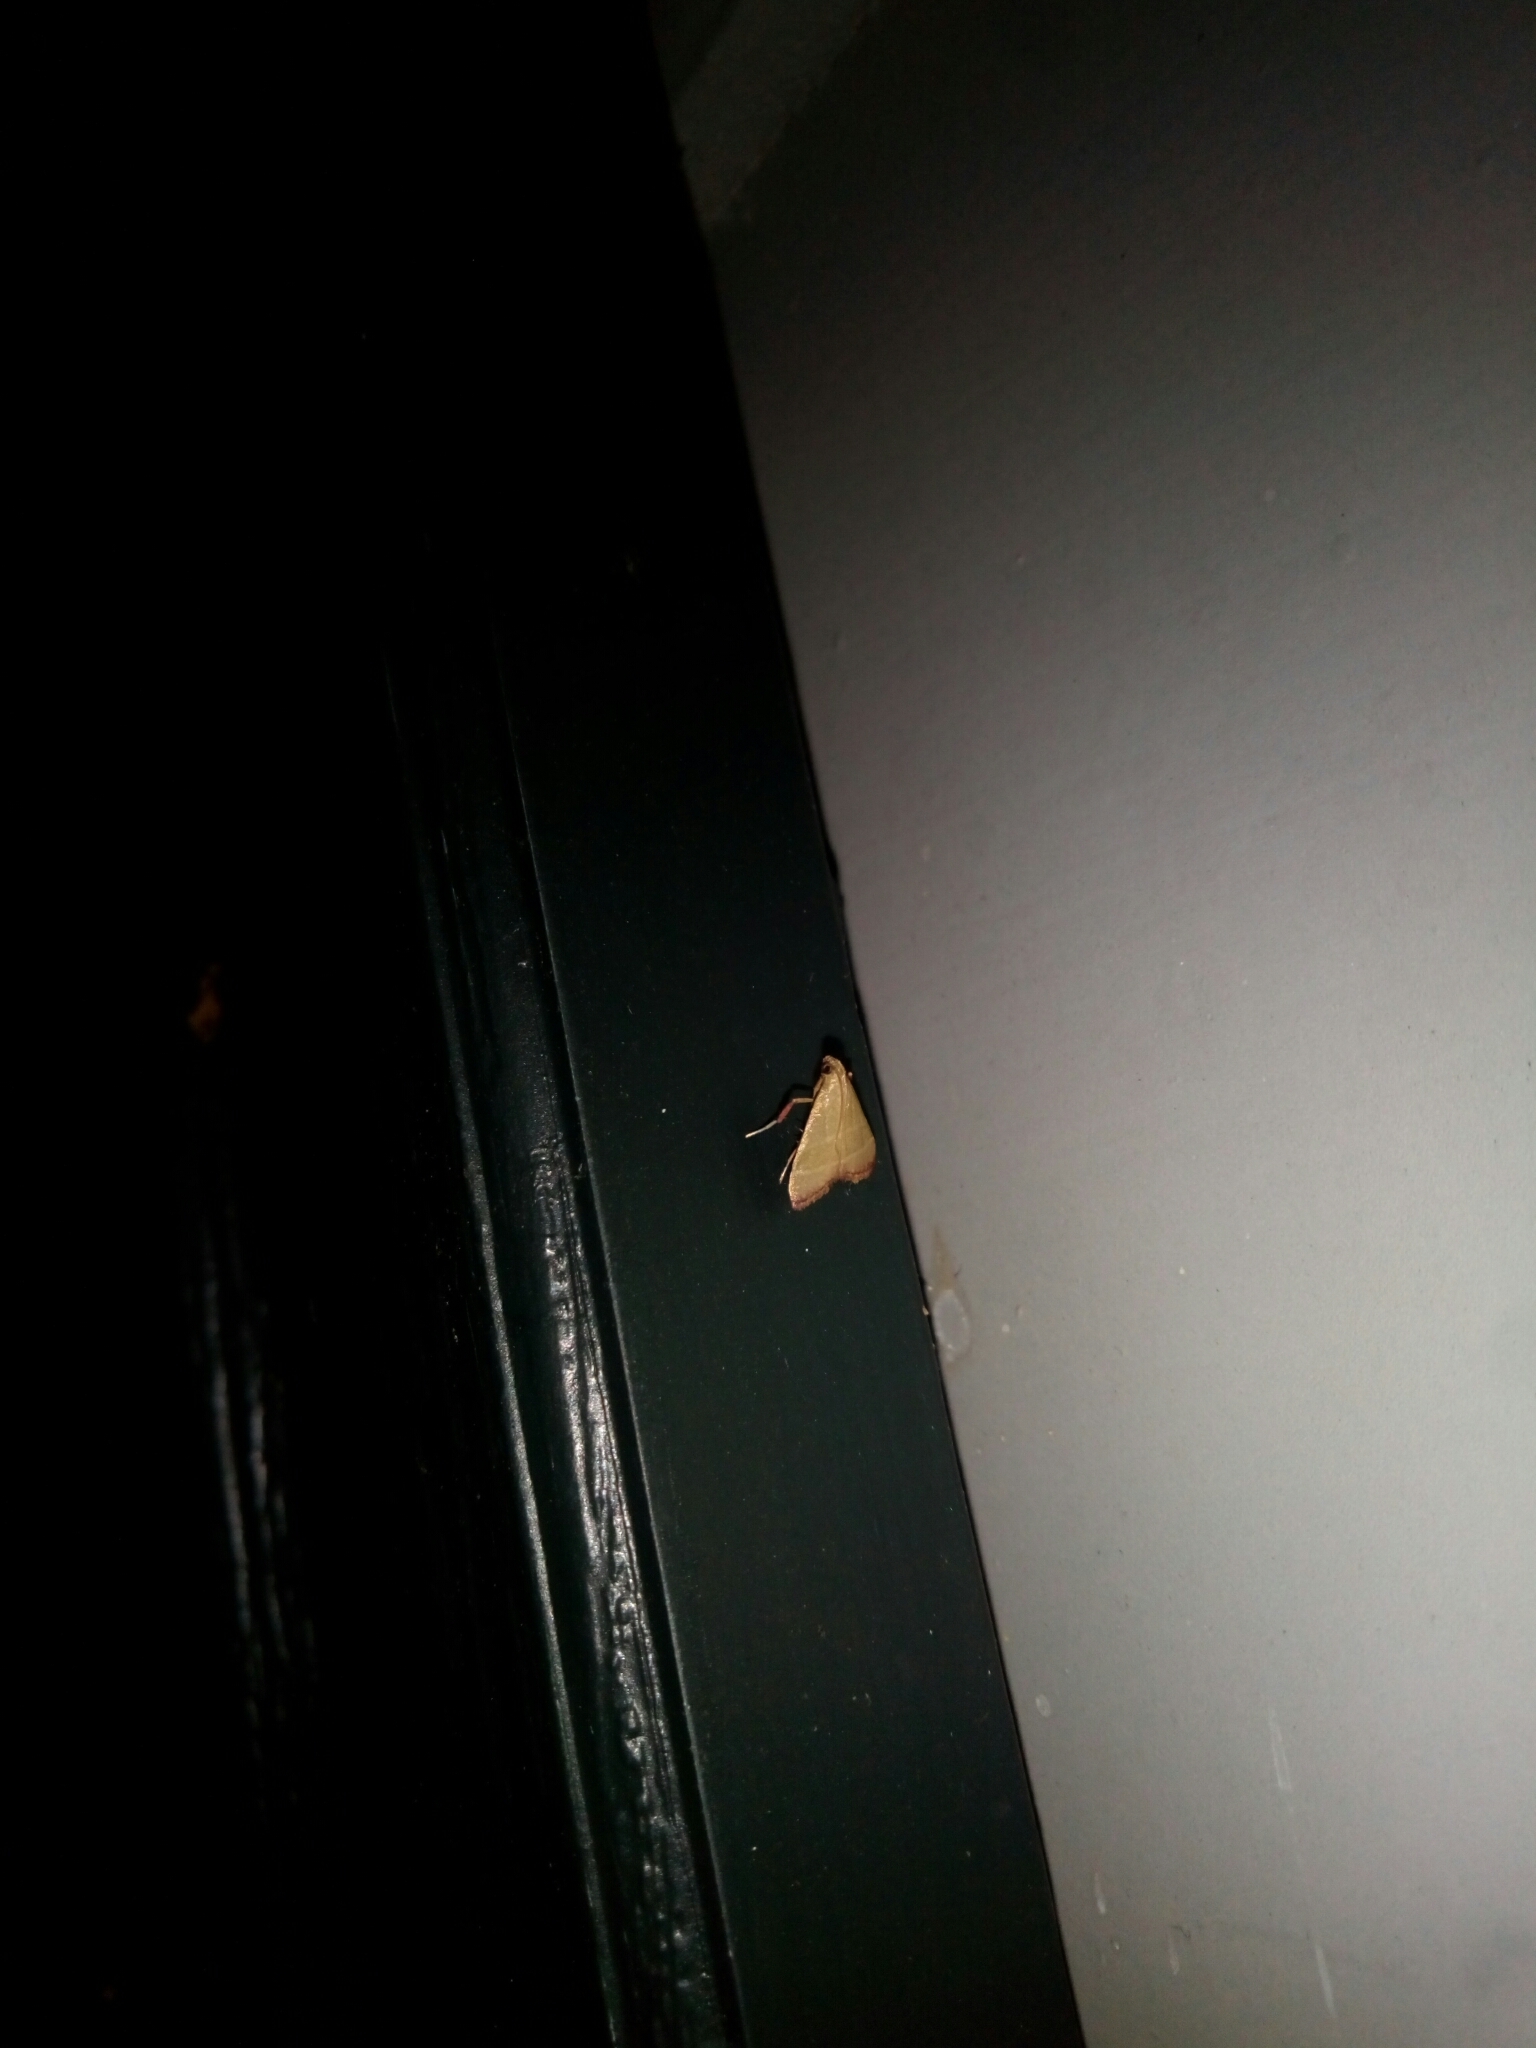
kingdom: Animalia
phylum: Arthropoda
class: Insecta
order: Lepidoptera
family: Pyralidae
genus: Arta
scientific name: Arta olivalis
